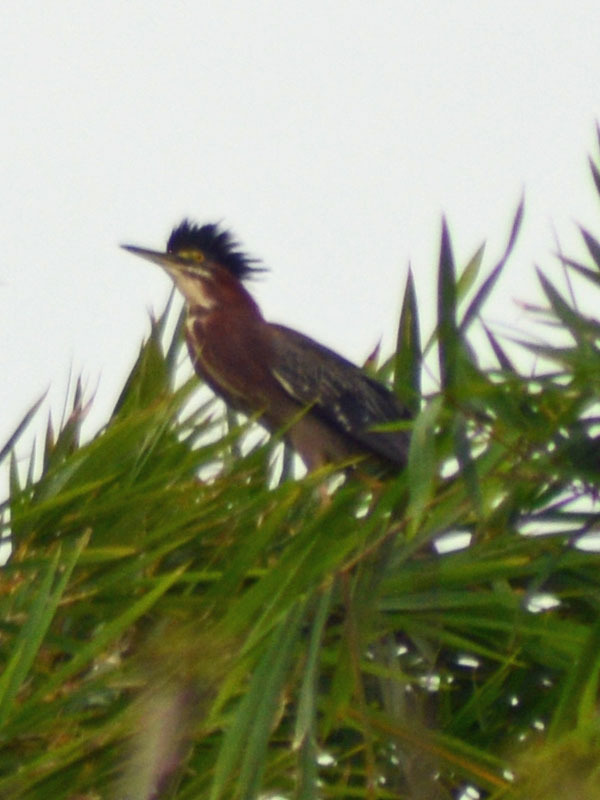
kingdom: Animalia
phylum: Chordata
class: Aves
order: Pelecaniformes
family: Ardeidae
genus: Butorides
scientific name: Butorides virescens
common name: Green heron
